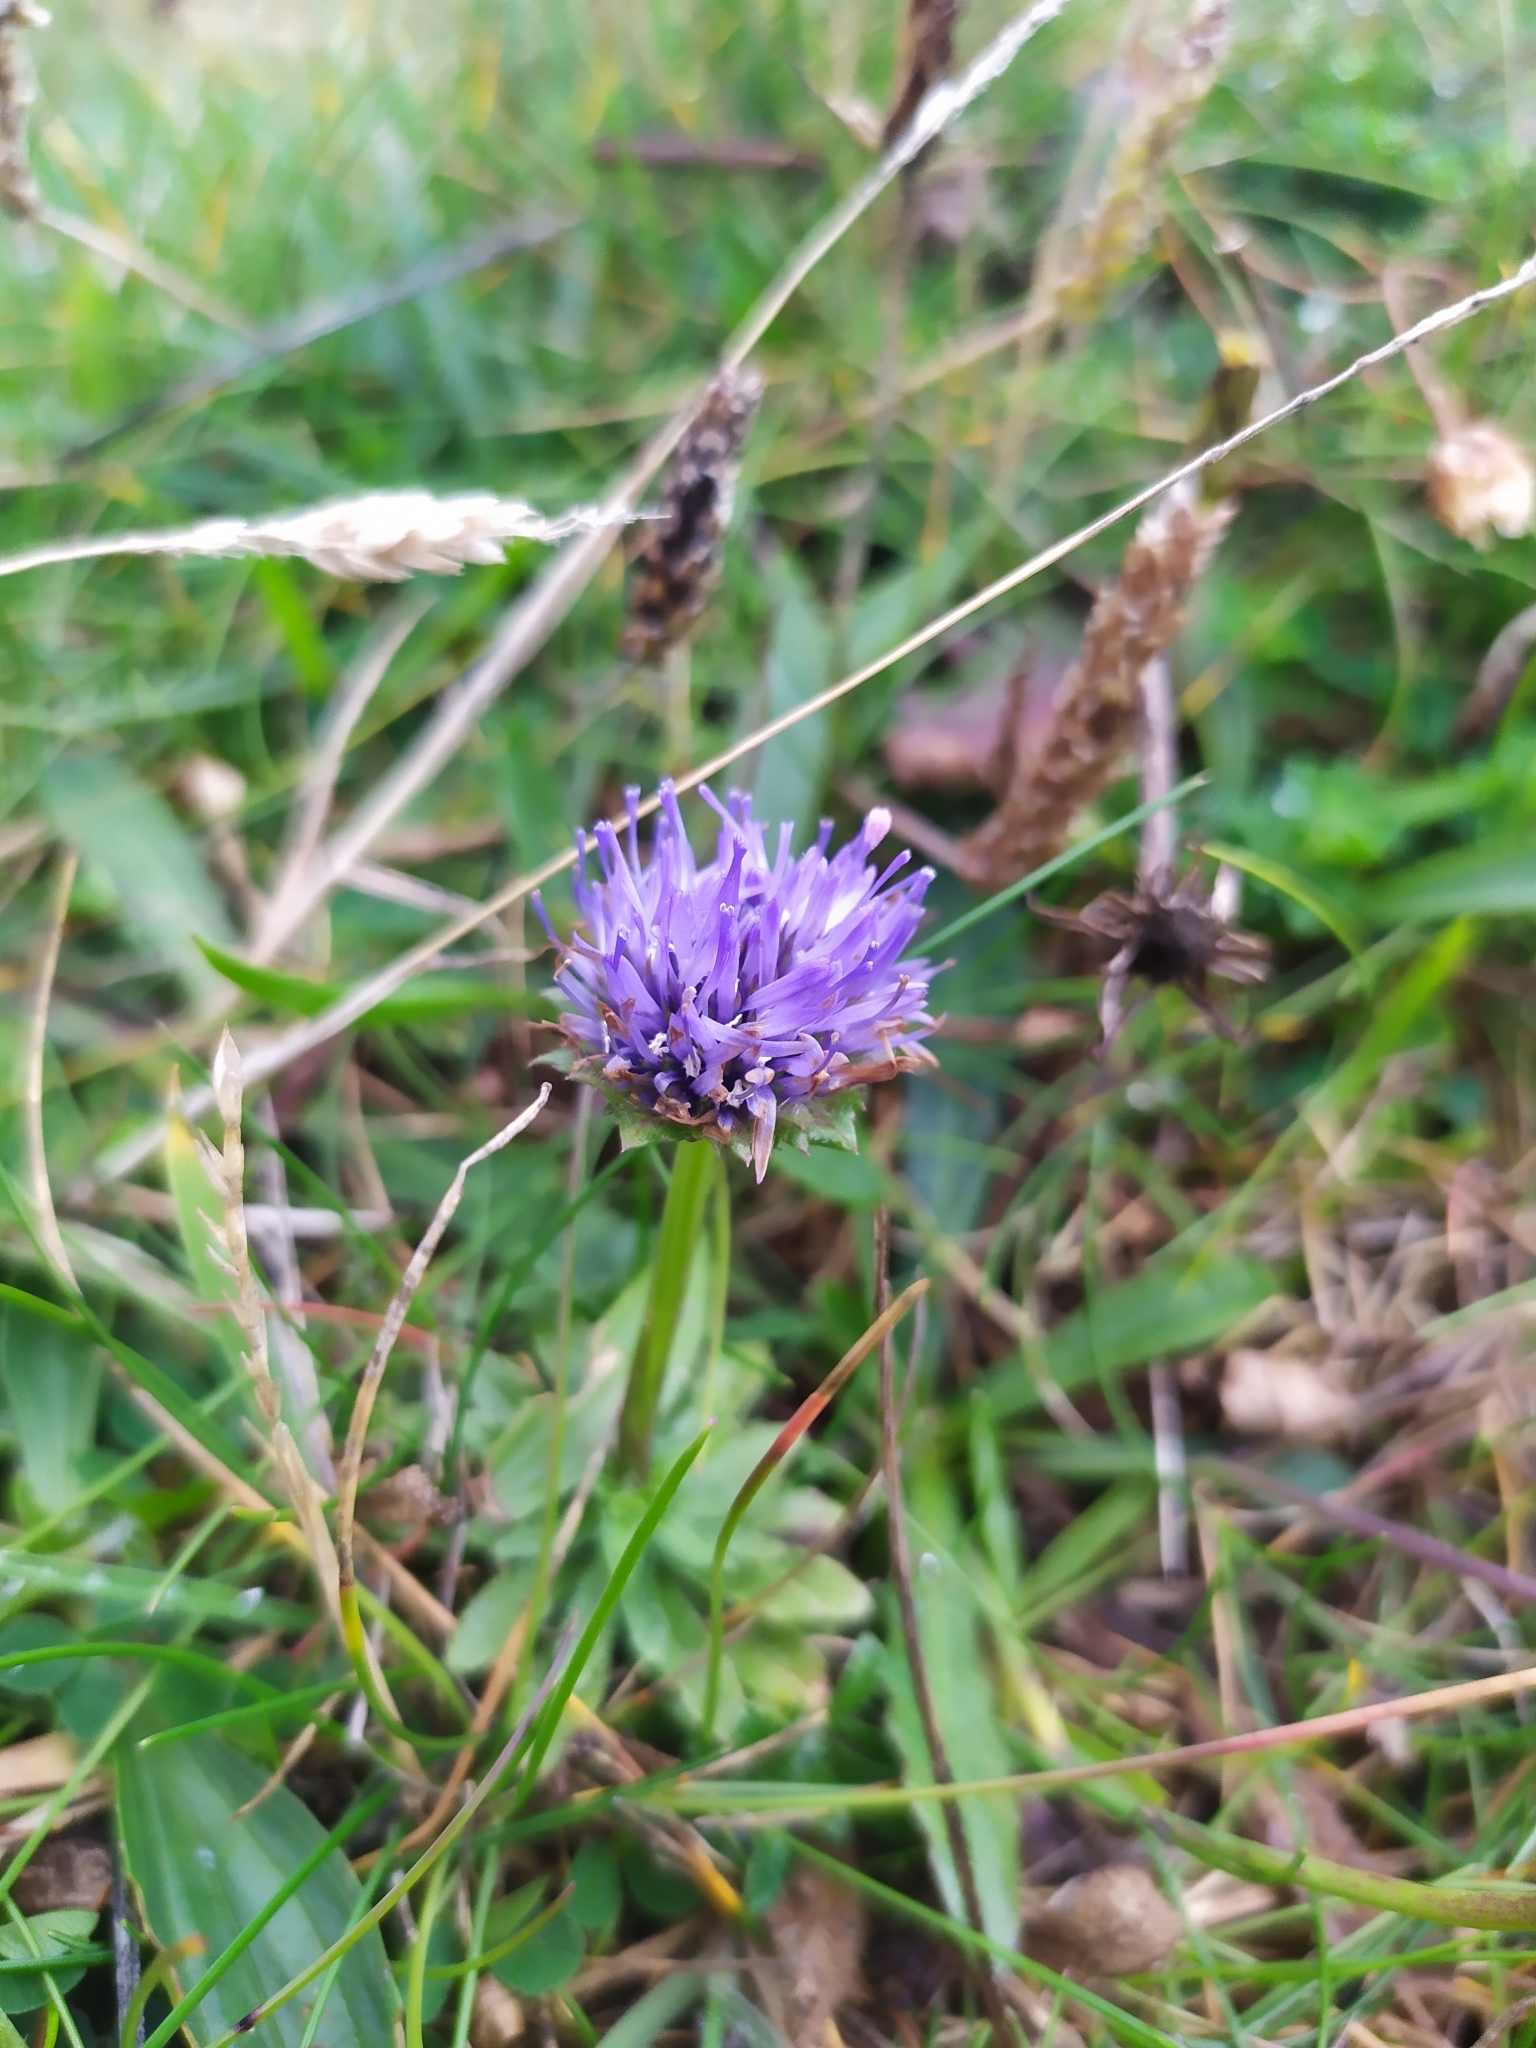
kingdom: Plantae
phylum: Tracheophyta
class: Magnoliopsida
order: Asterales
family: Campanulaceae
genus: Jasione
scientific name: Jasione montana
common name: Sheep's-bit
